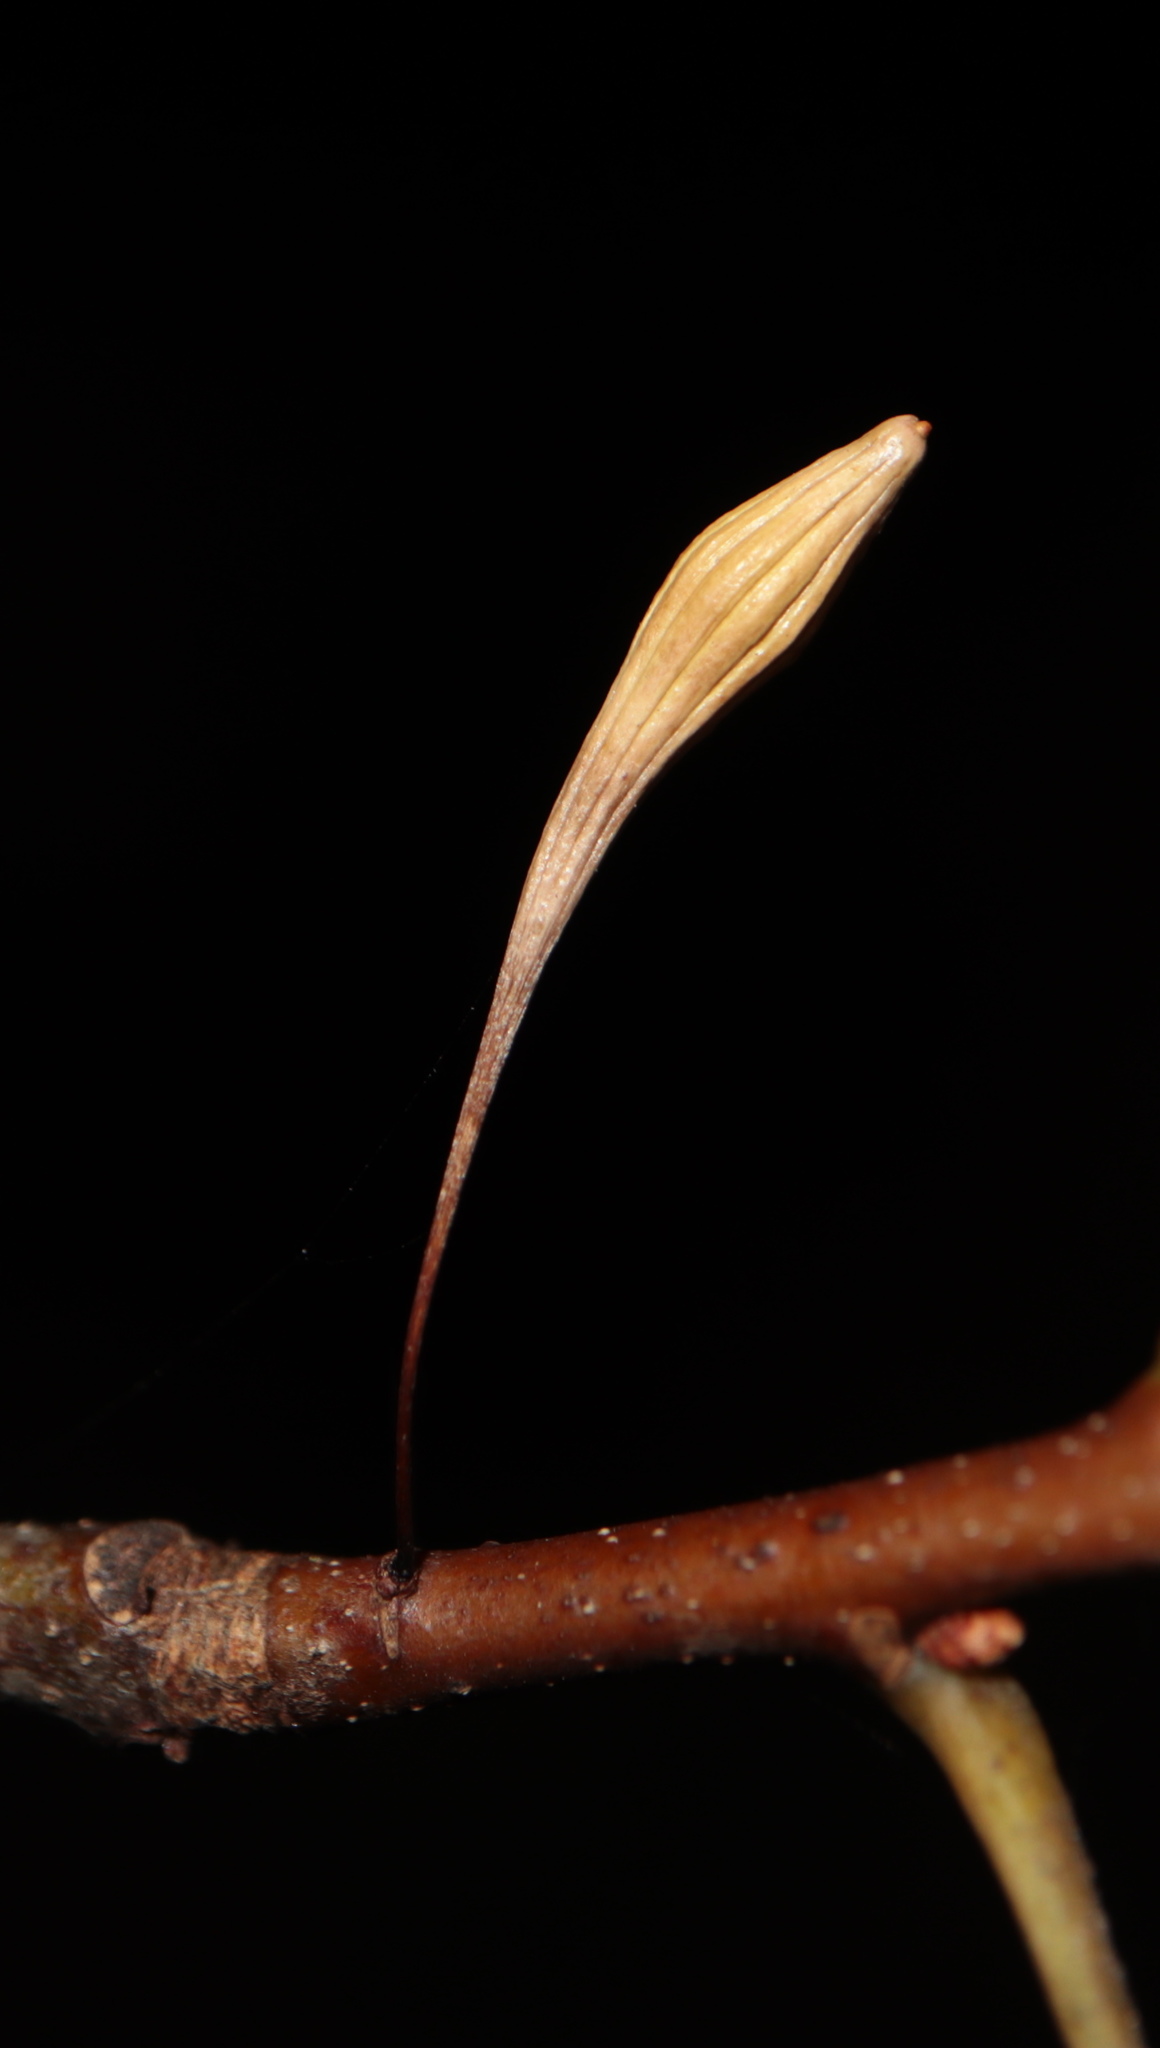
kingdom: Animalia
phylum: Arthropoda
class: Insecta
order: Hymenoptera
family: Cynipidae
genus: Callirhytis
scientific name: Callirhytis
